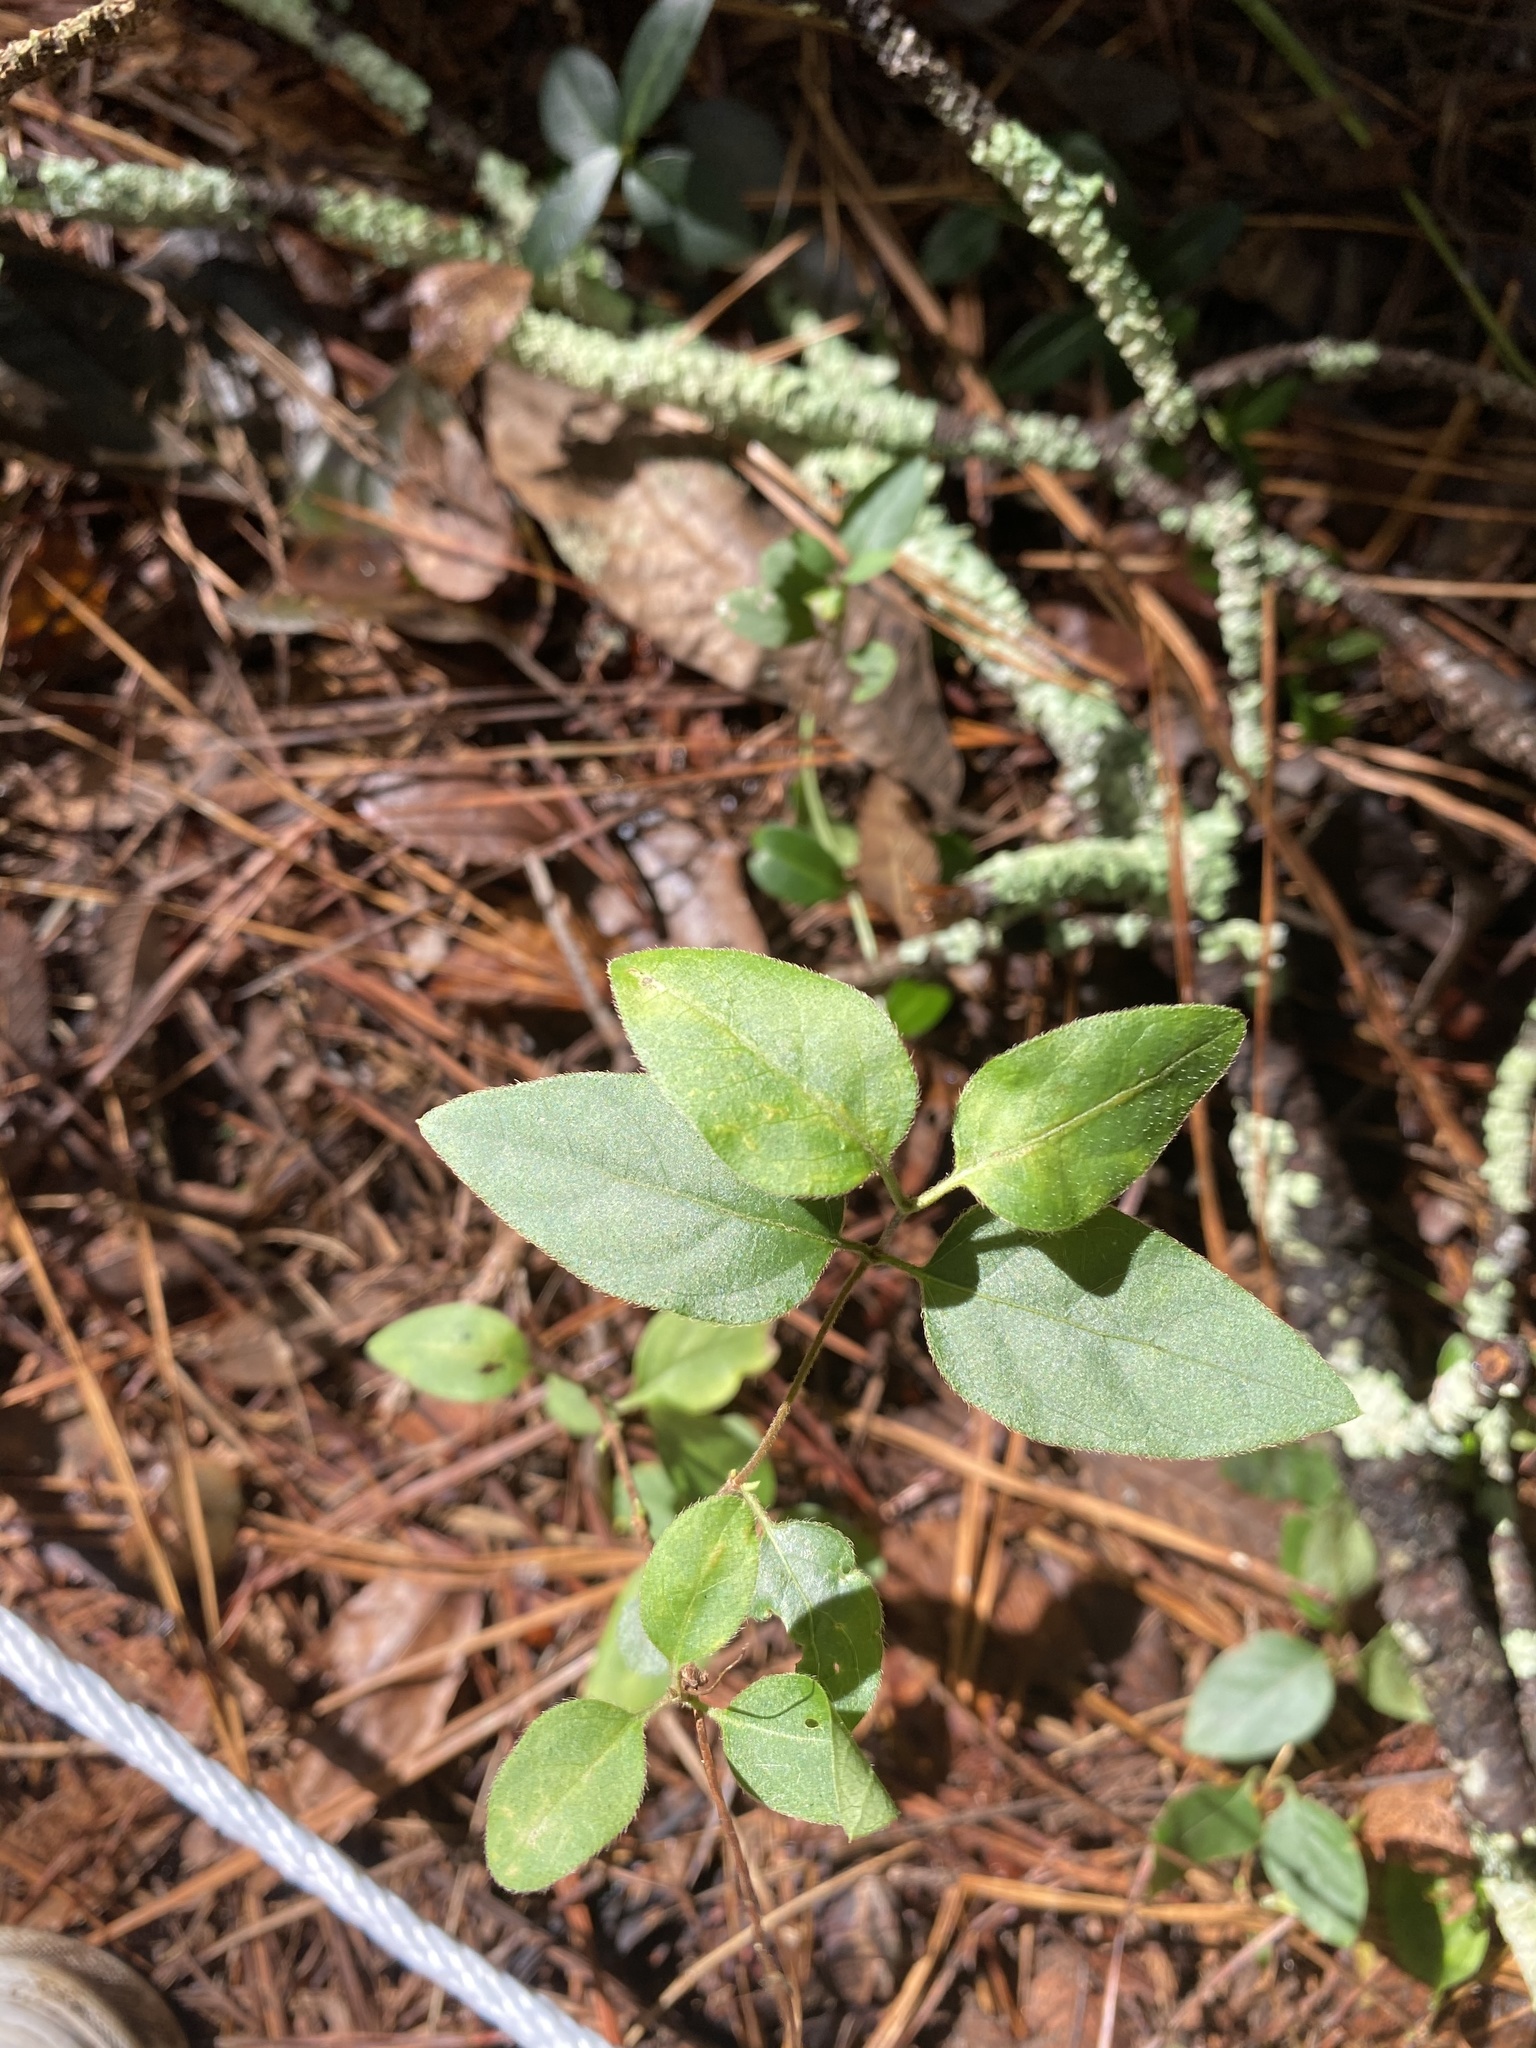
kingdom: Plantae
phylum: Tracheophyta
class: Magnoliopsida
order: Dipsacales
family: Caprifoliaceae
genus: Lonicera
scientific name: Lonicera japonica
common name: Japanese honeysuckle
